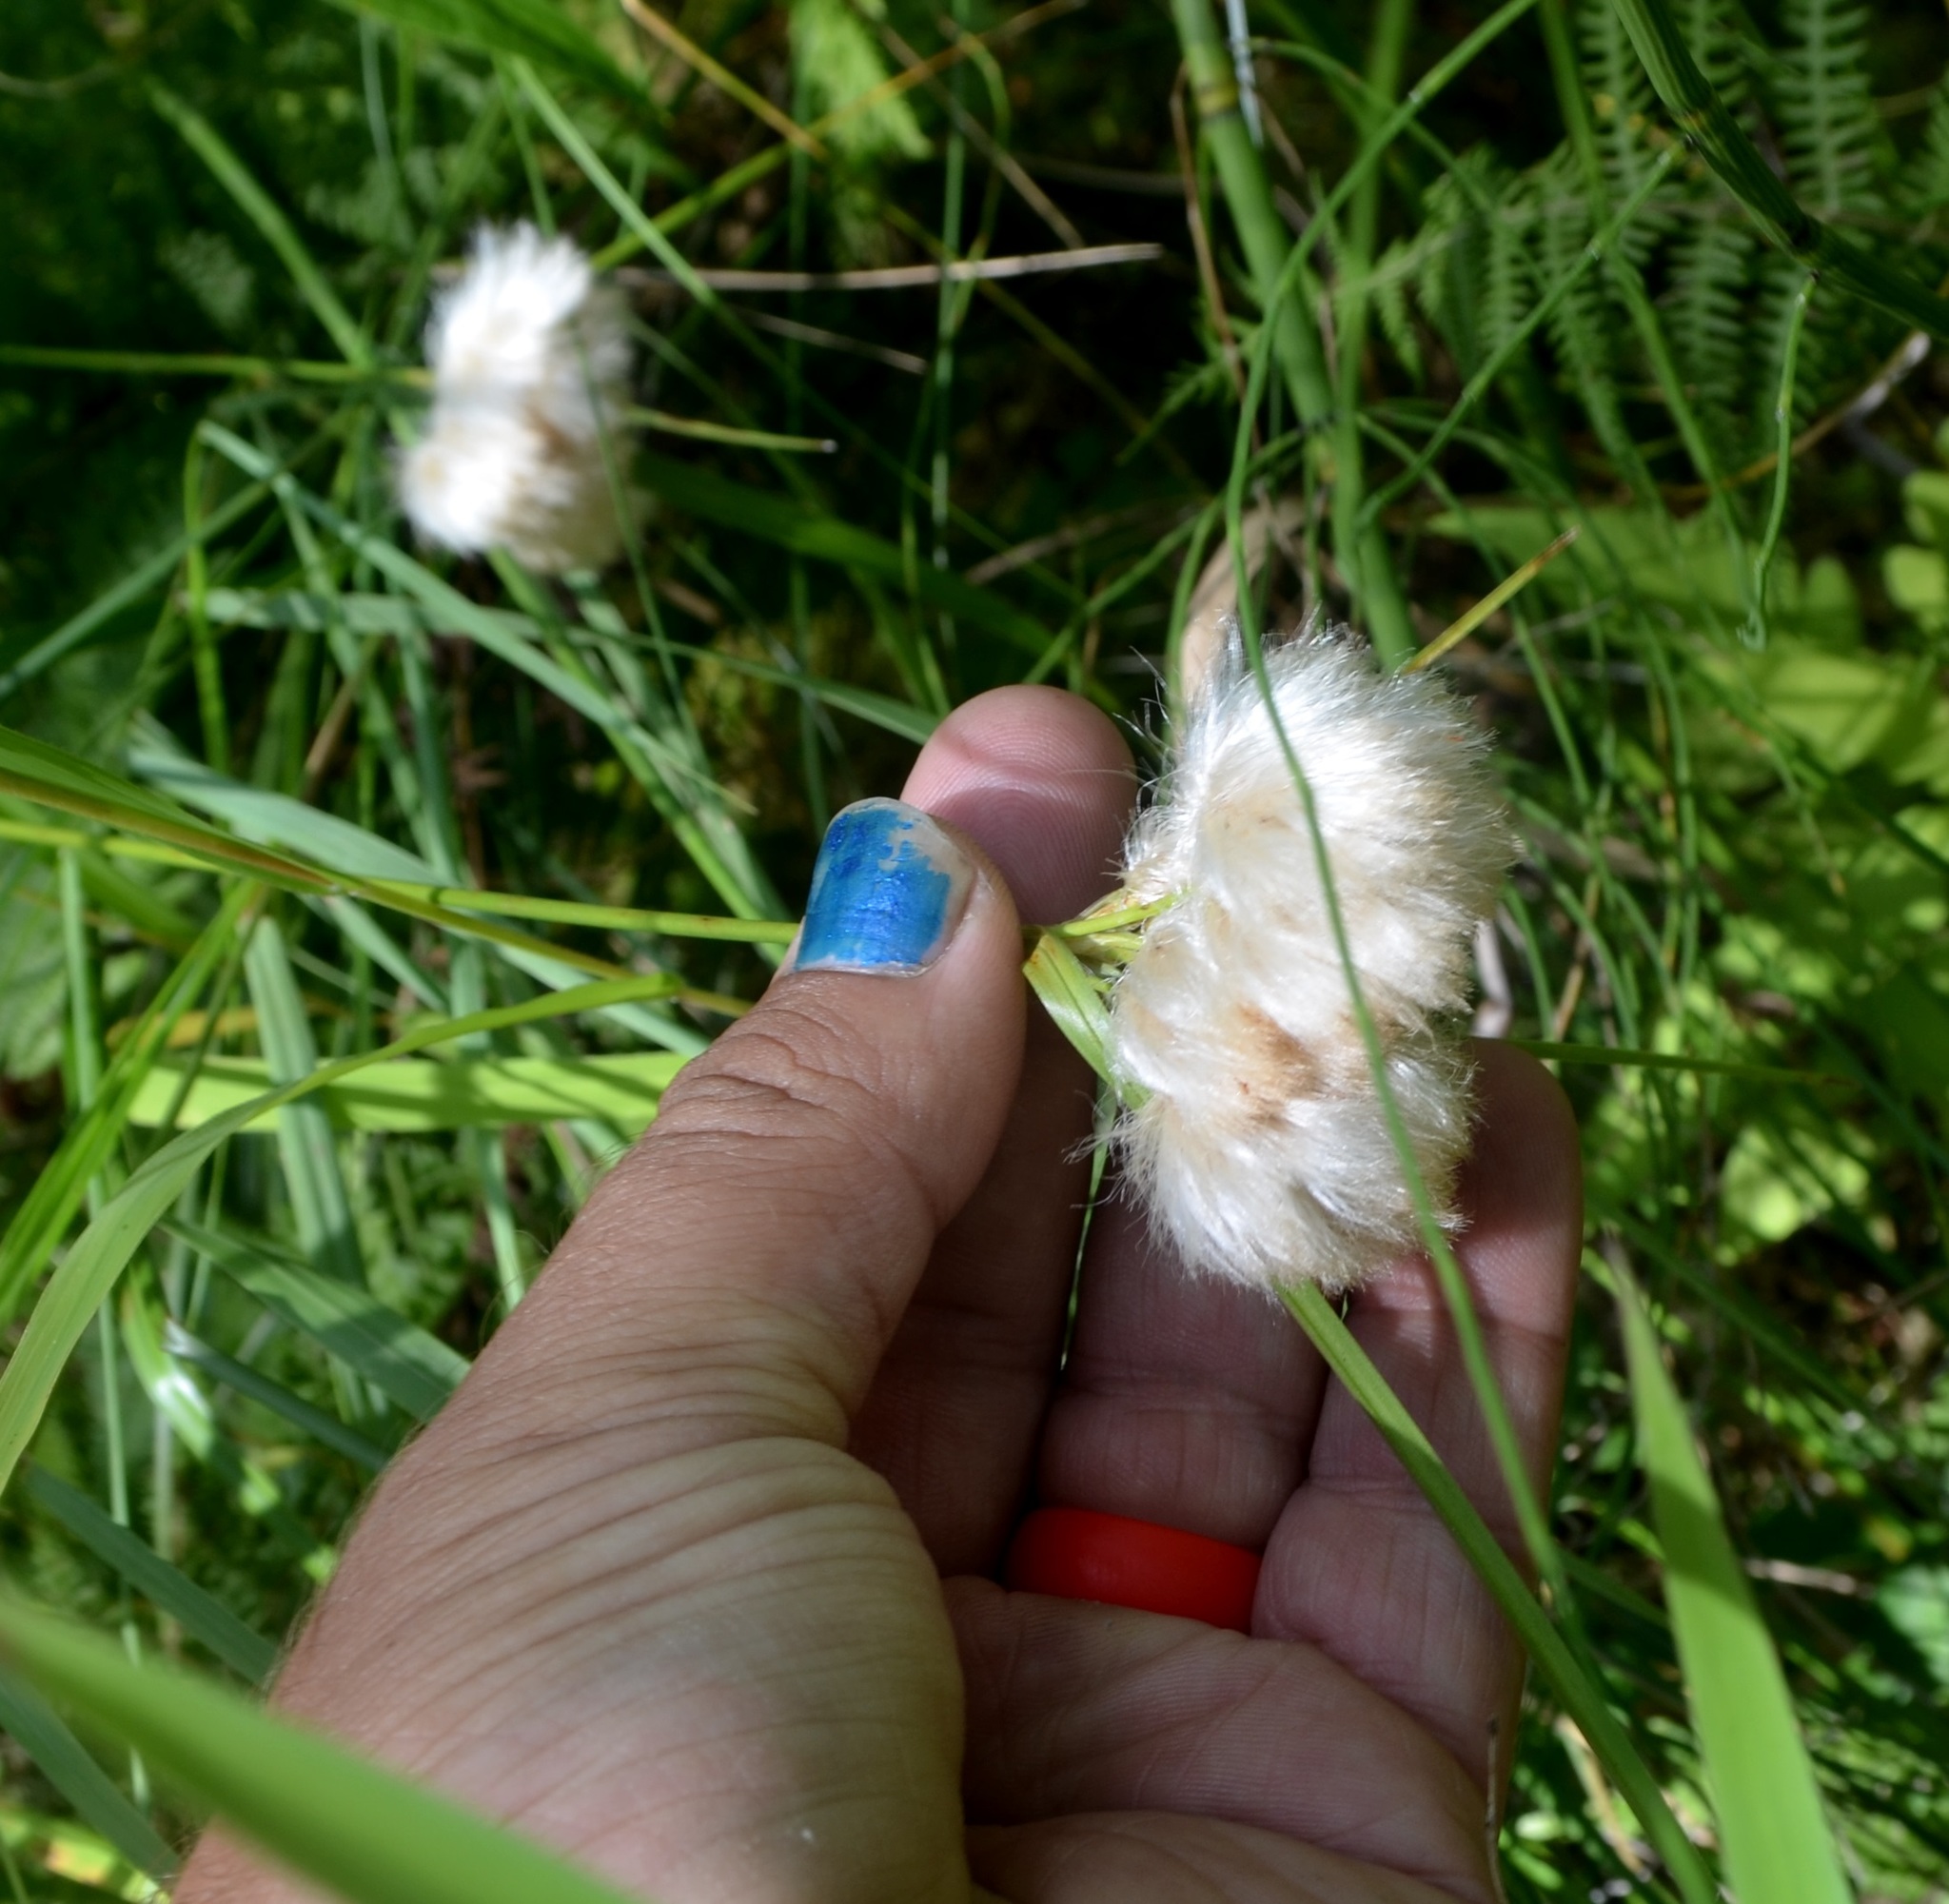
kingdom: Plantae
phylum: Tracheophyta
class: Liliopsida
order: Poales
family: Cyperaceae
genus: Eriophorum
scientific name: Eriophorum virginicum
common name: Tawny cottongrass
